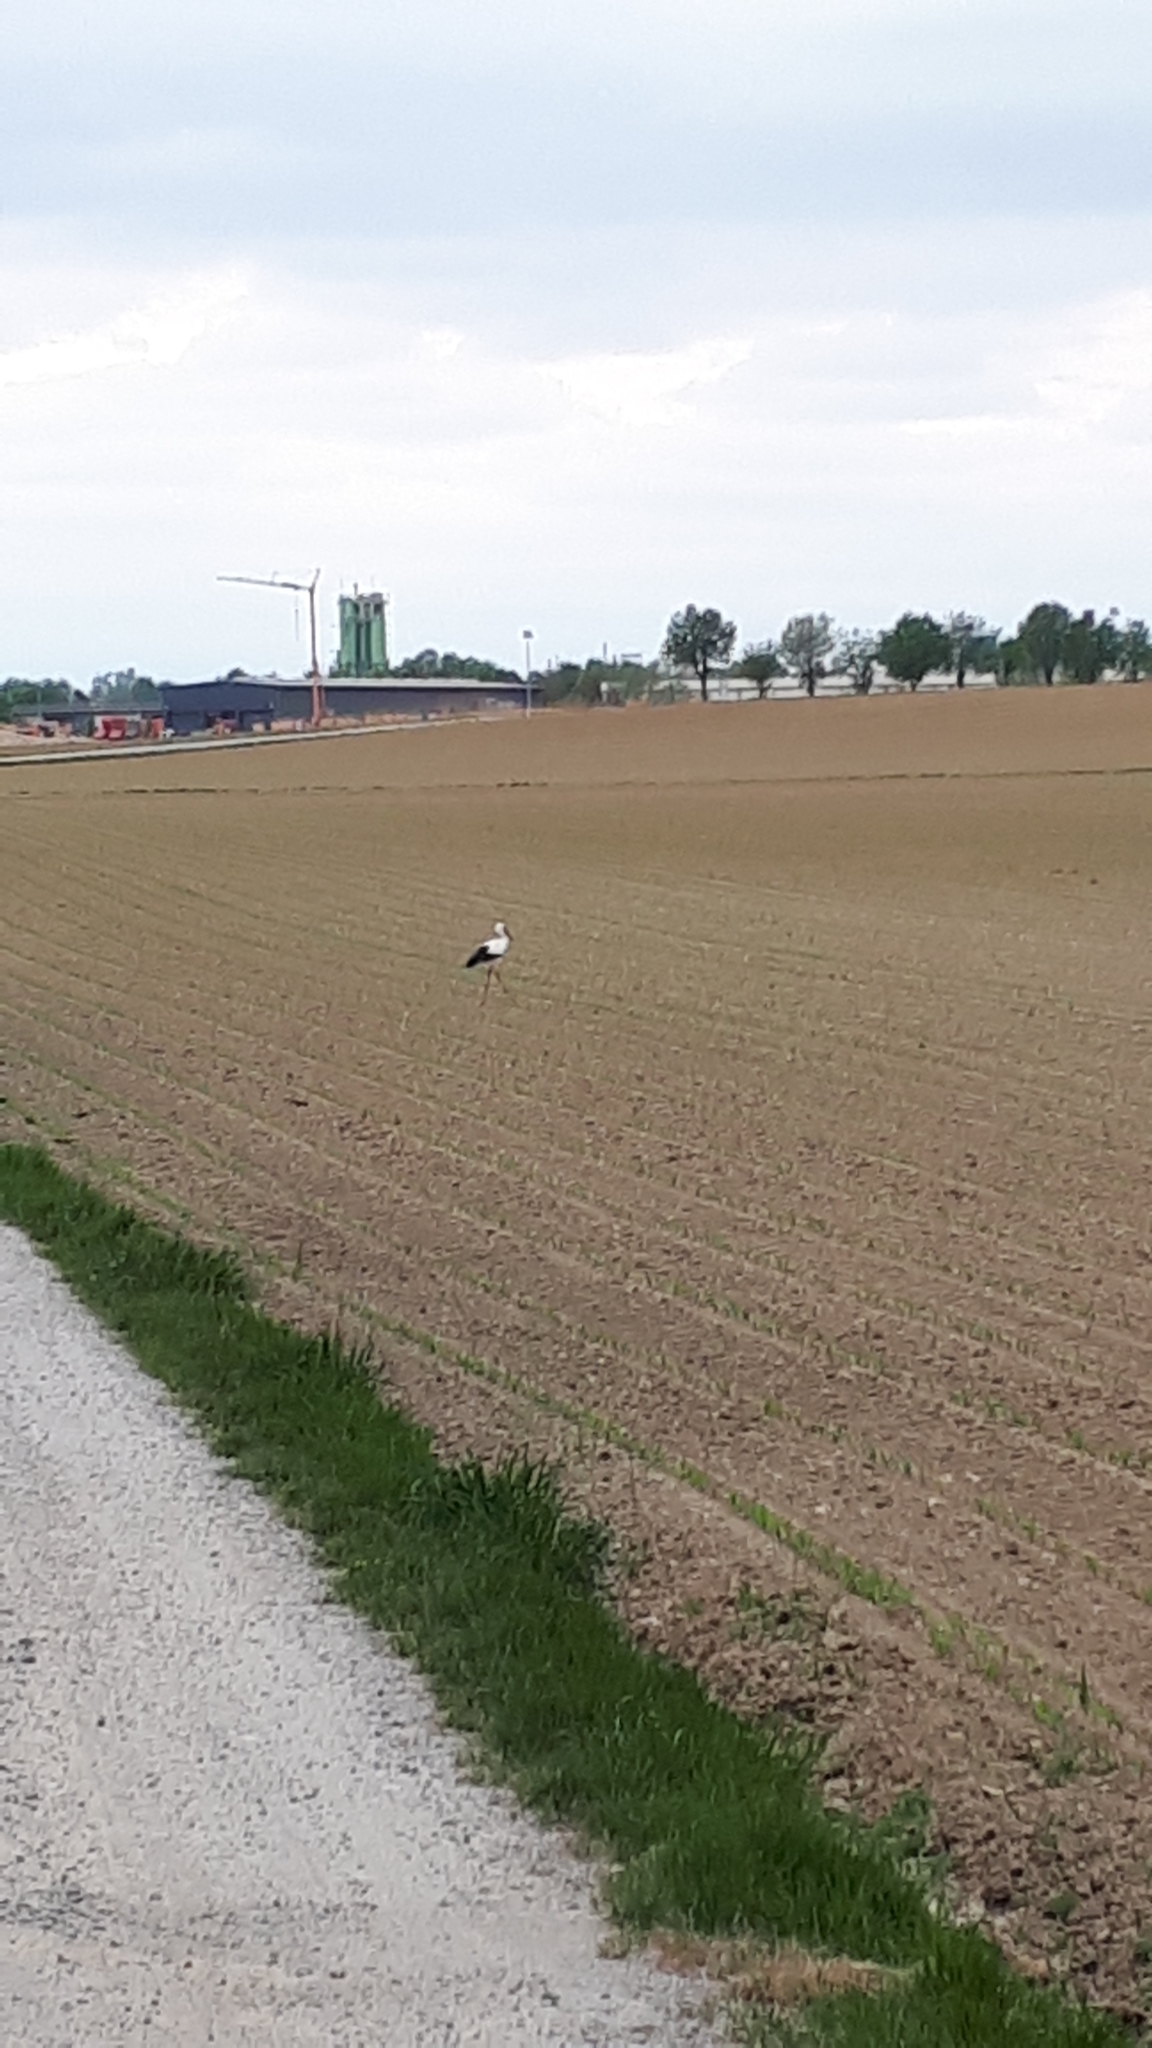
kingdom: Animalia
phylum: Chordata
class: Aves
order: Ciconiiformes
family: Ciconiidae
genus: Ciconia
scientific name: Ciconia ciconia
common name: White stork
